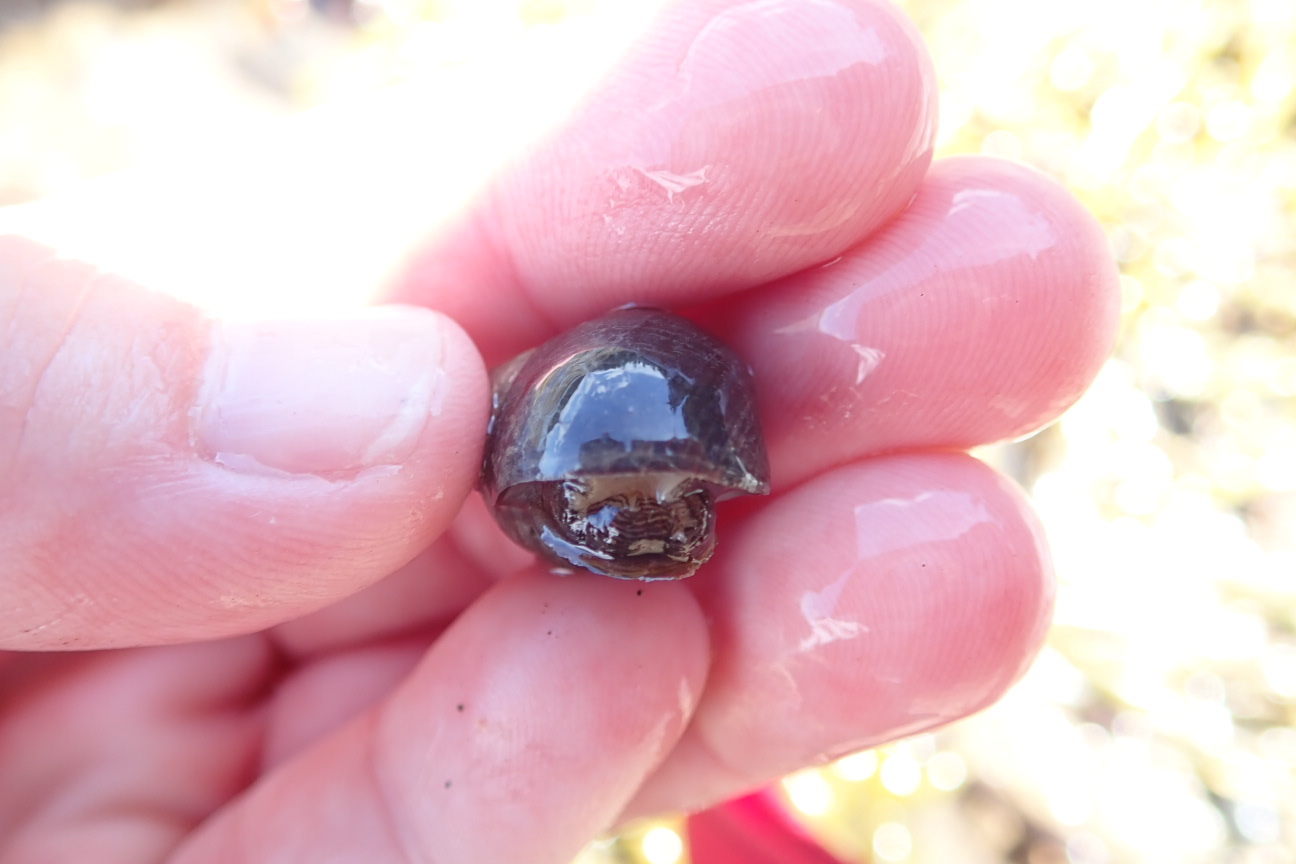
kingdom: Animalia
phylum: Mollusca
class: Gastropoda
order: Littorinimorpha
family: Littorinidae
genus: Littorina
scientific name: Littorina littorea
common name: Common periwinkle
